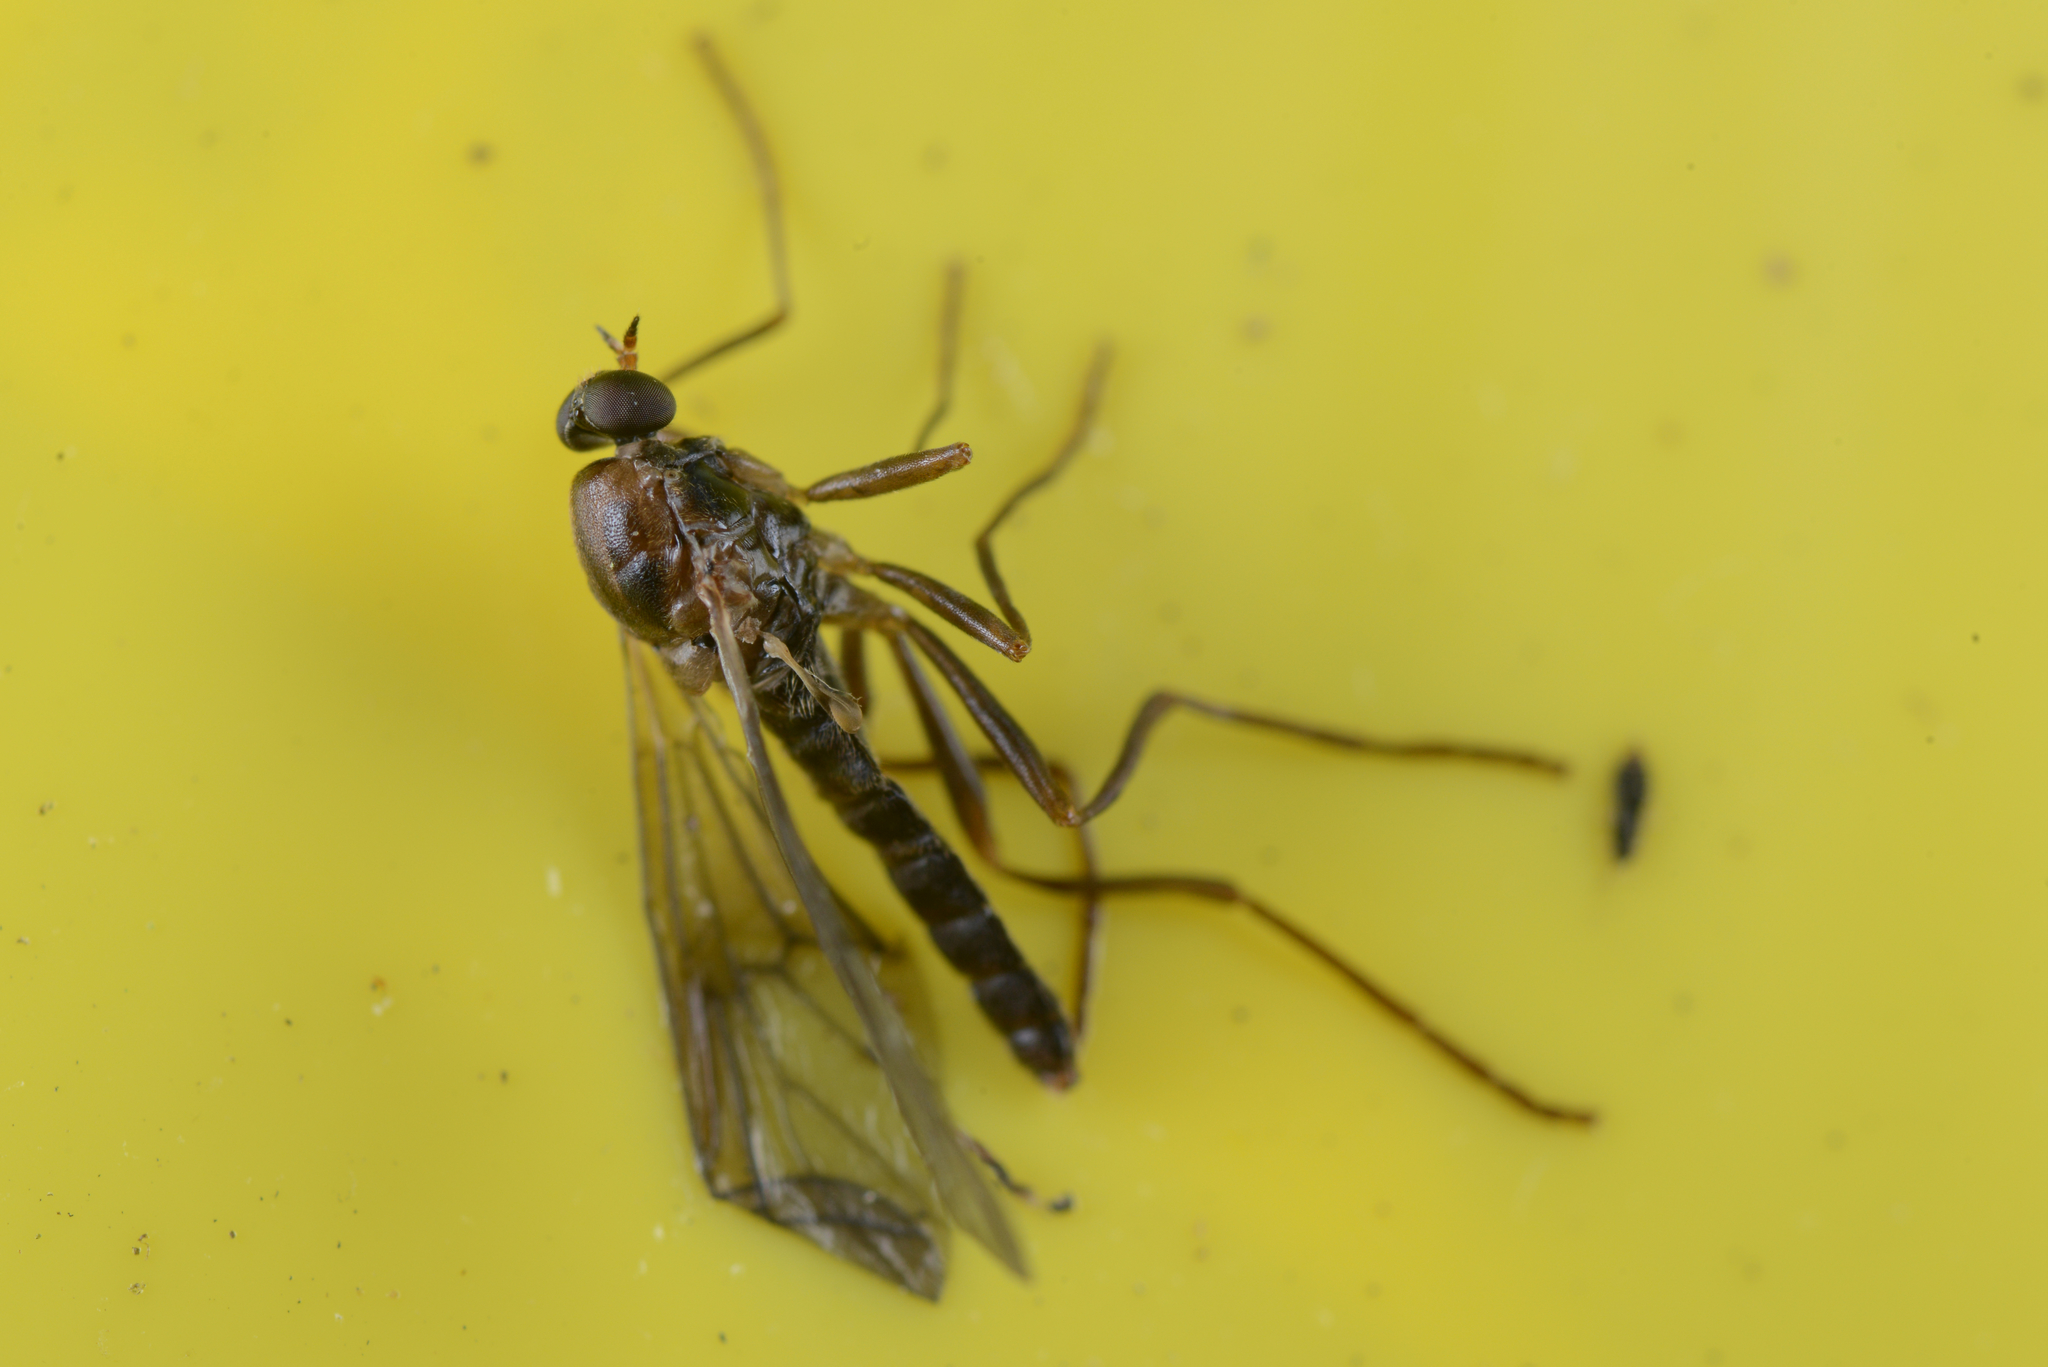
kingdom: Animalia
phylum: Arthropoda
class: Insecta
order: Diptera
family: Stratiomyidae
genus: Boreoides
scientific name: Boreoides tasmaniensis
